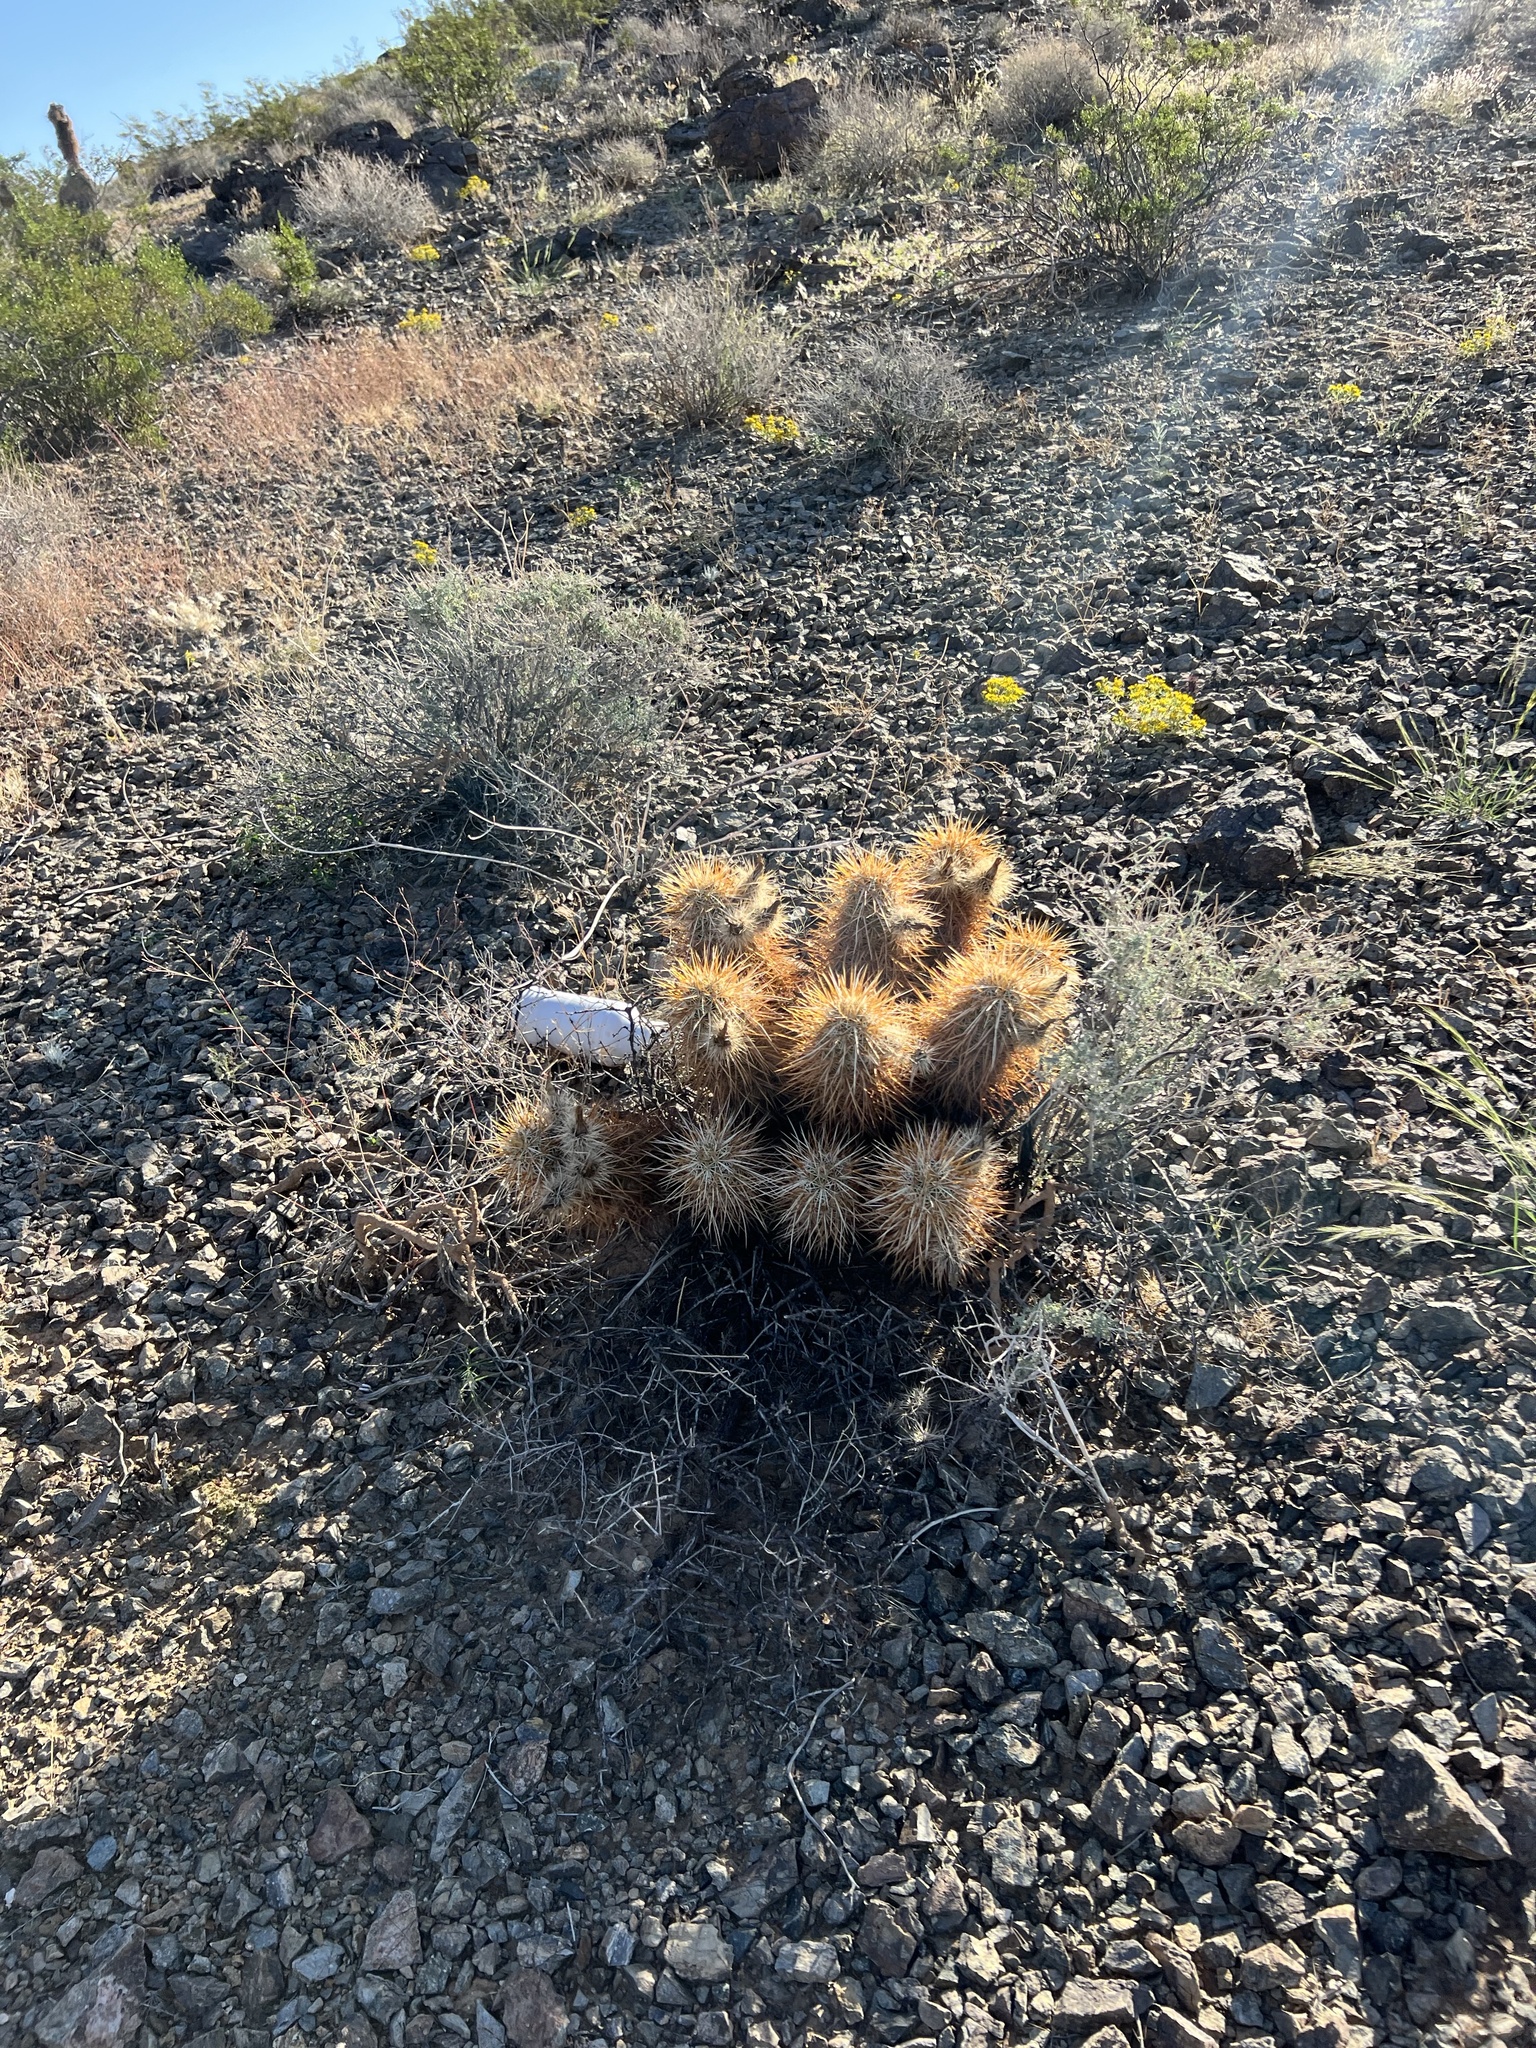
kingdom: Plantae
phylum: Tracheophyta
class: Magnoliopsida
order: Caryophyllales
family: Cactaceae
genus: Echinocereus
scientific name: Echinocereus engelmannii
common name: Engelmann's hedgehog cactus
